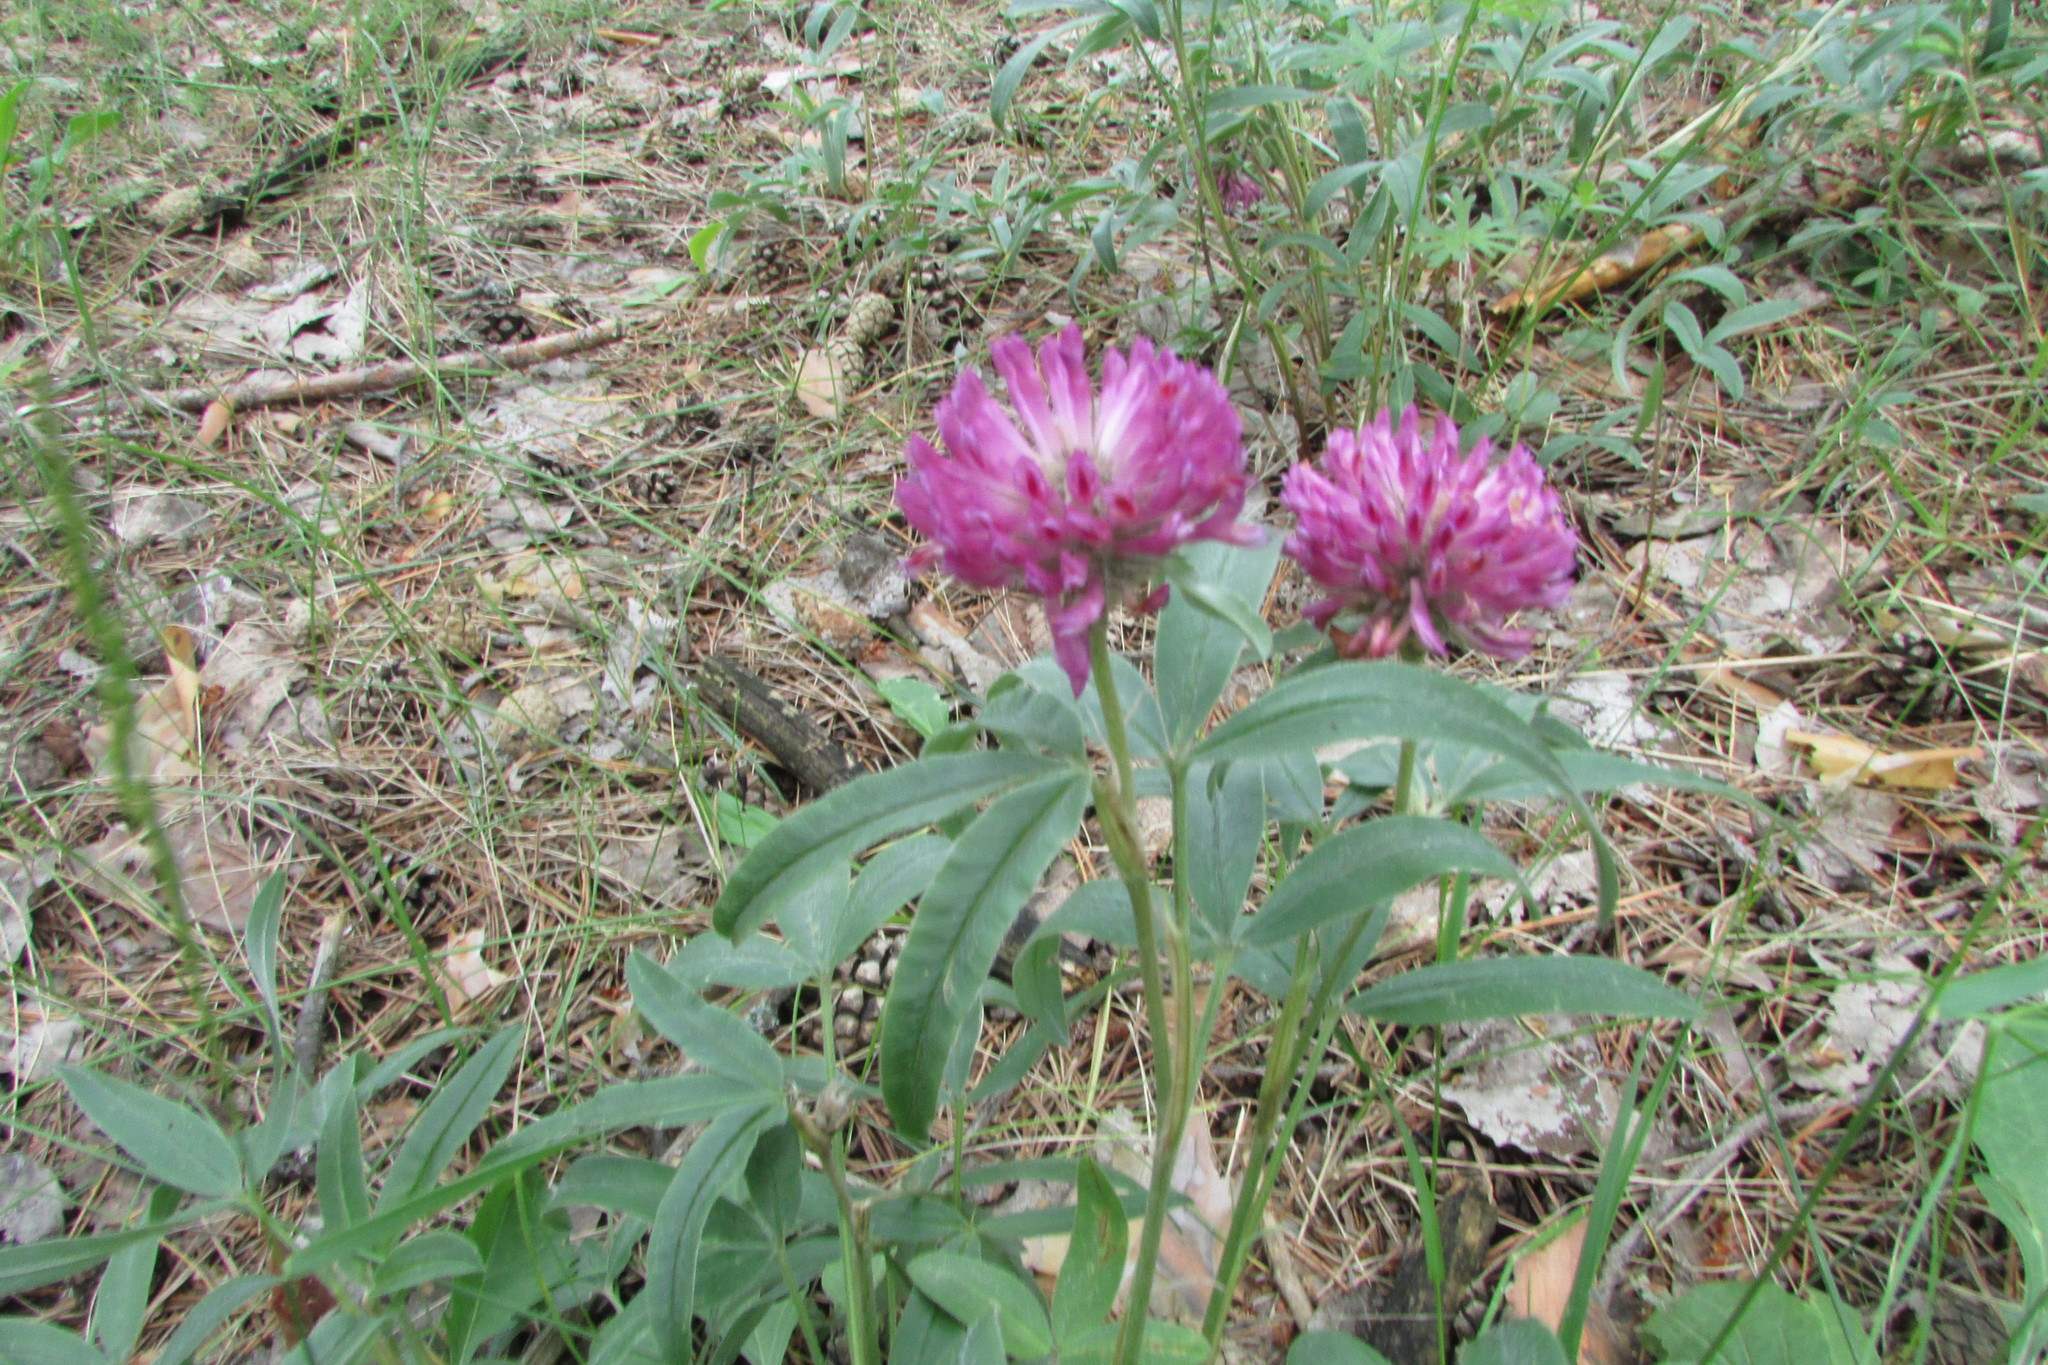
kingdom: Plantae
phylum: Tracheophyta
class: Magnoliopsida
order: Fabales
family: Fabaceae
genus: Trifolium
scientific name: Trifolium alpestre
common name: Owl-head clover
